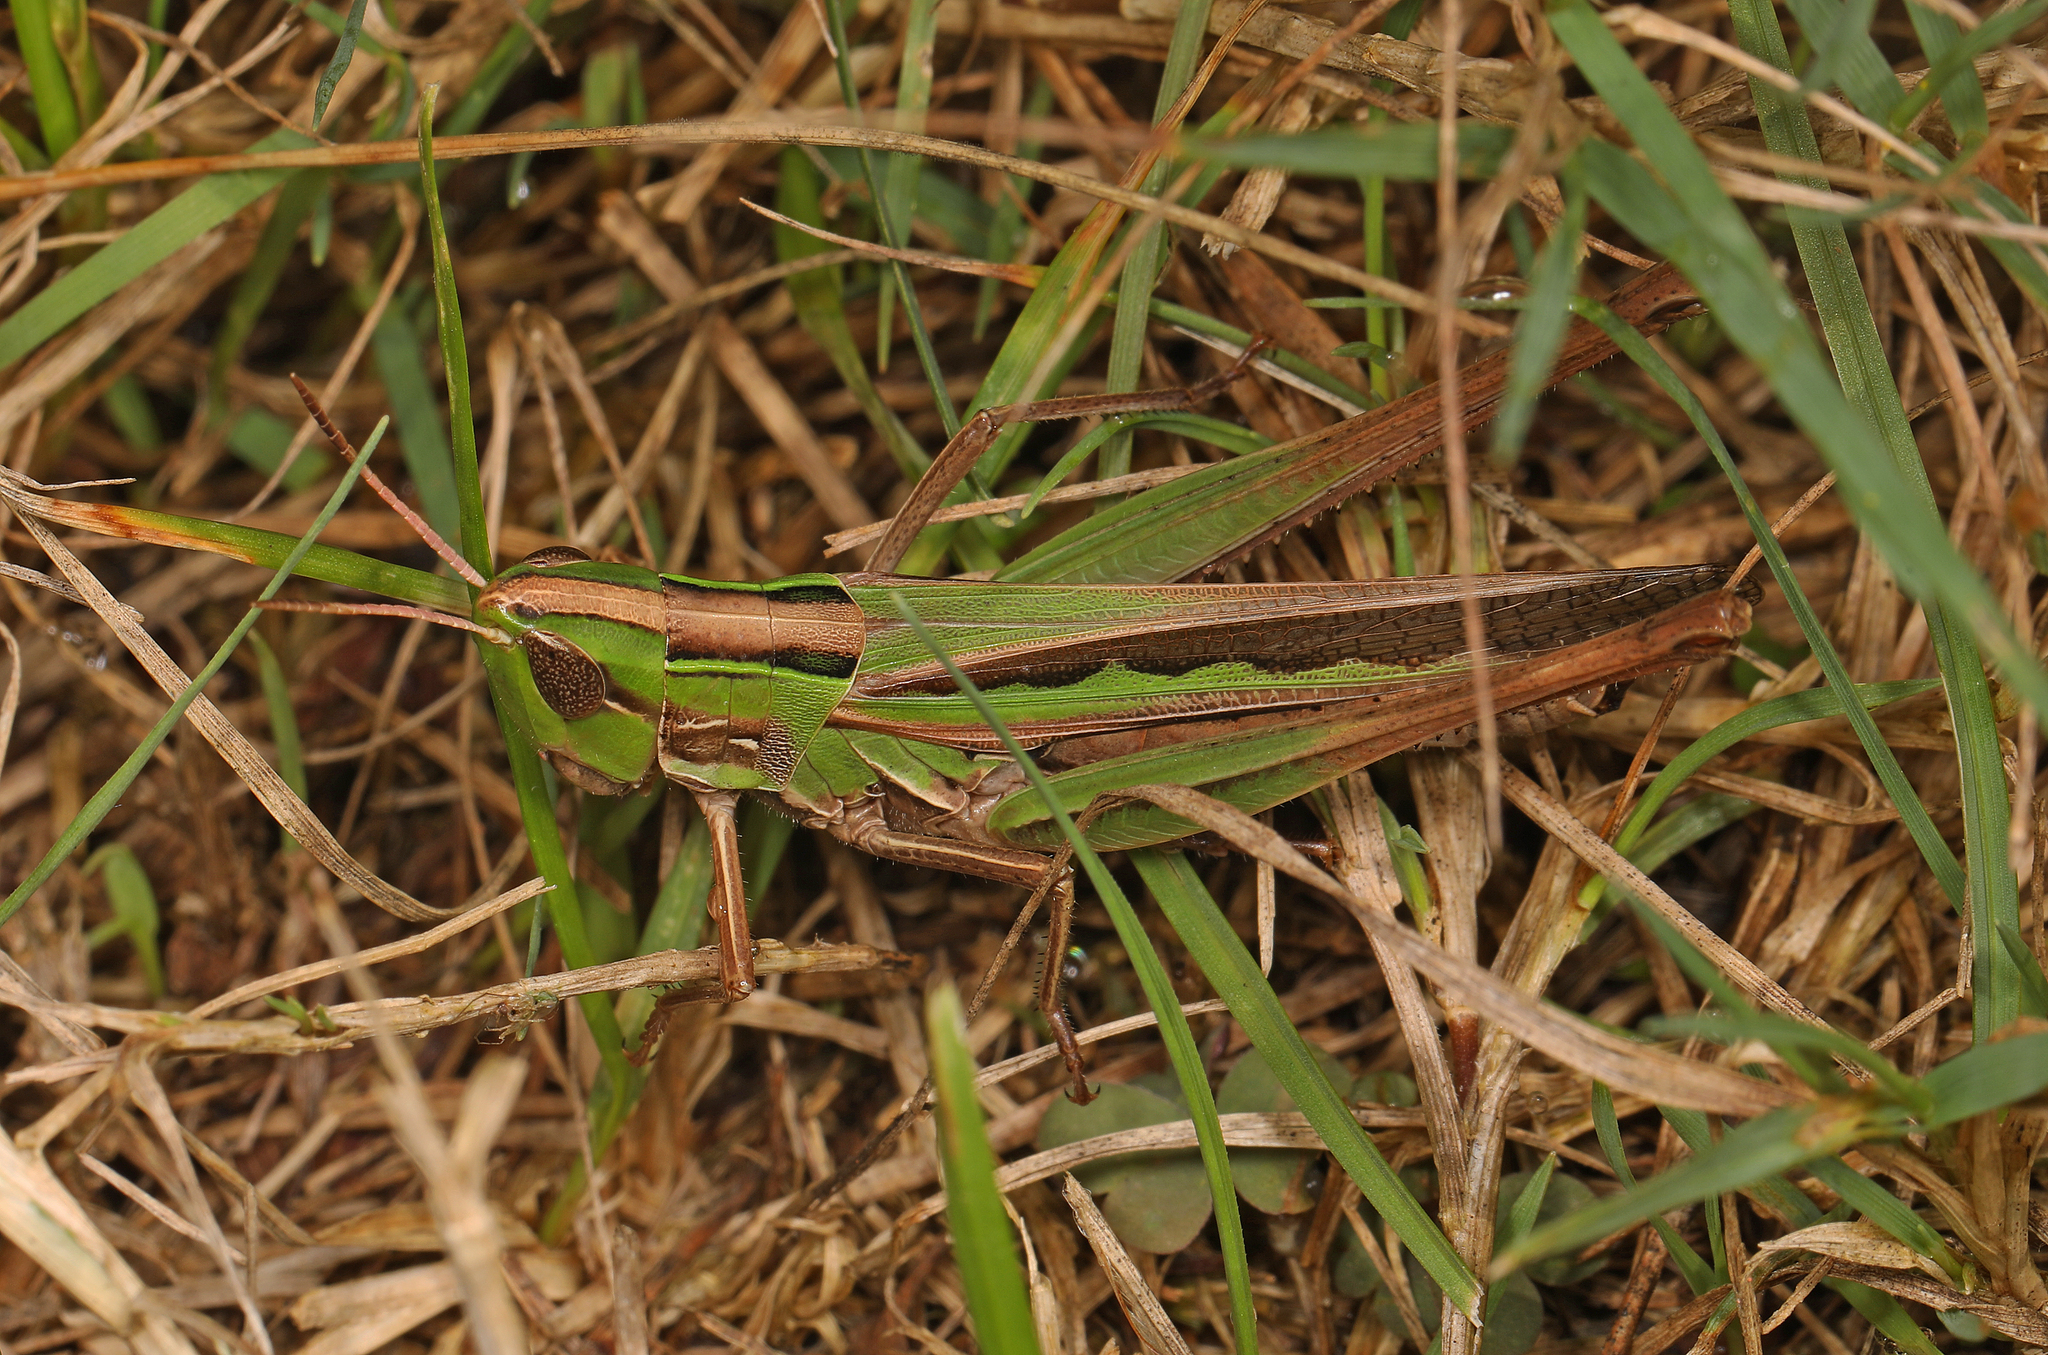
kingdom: Animalia
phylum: Arthropoda
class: Insecta
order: Orthoptera
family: Acrididae
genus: Syrbula
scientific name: Syrbula admirabilis
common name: Handsome grasshopper
